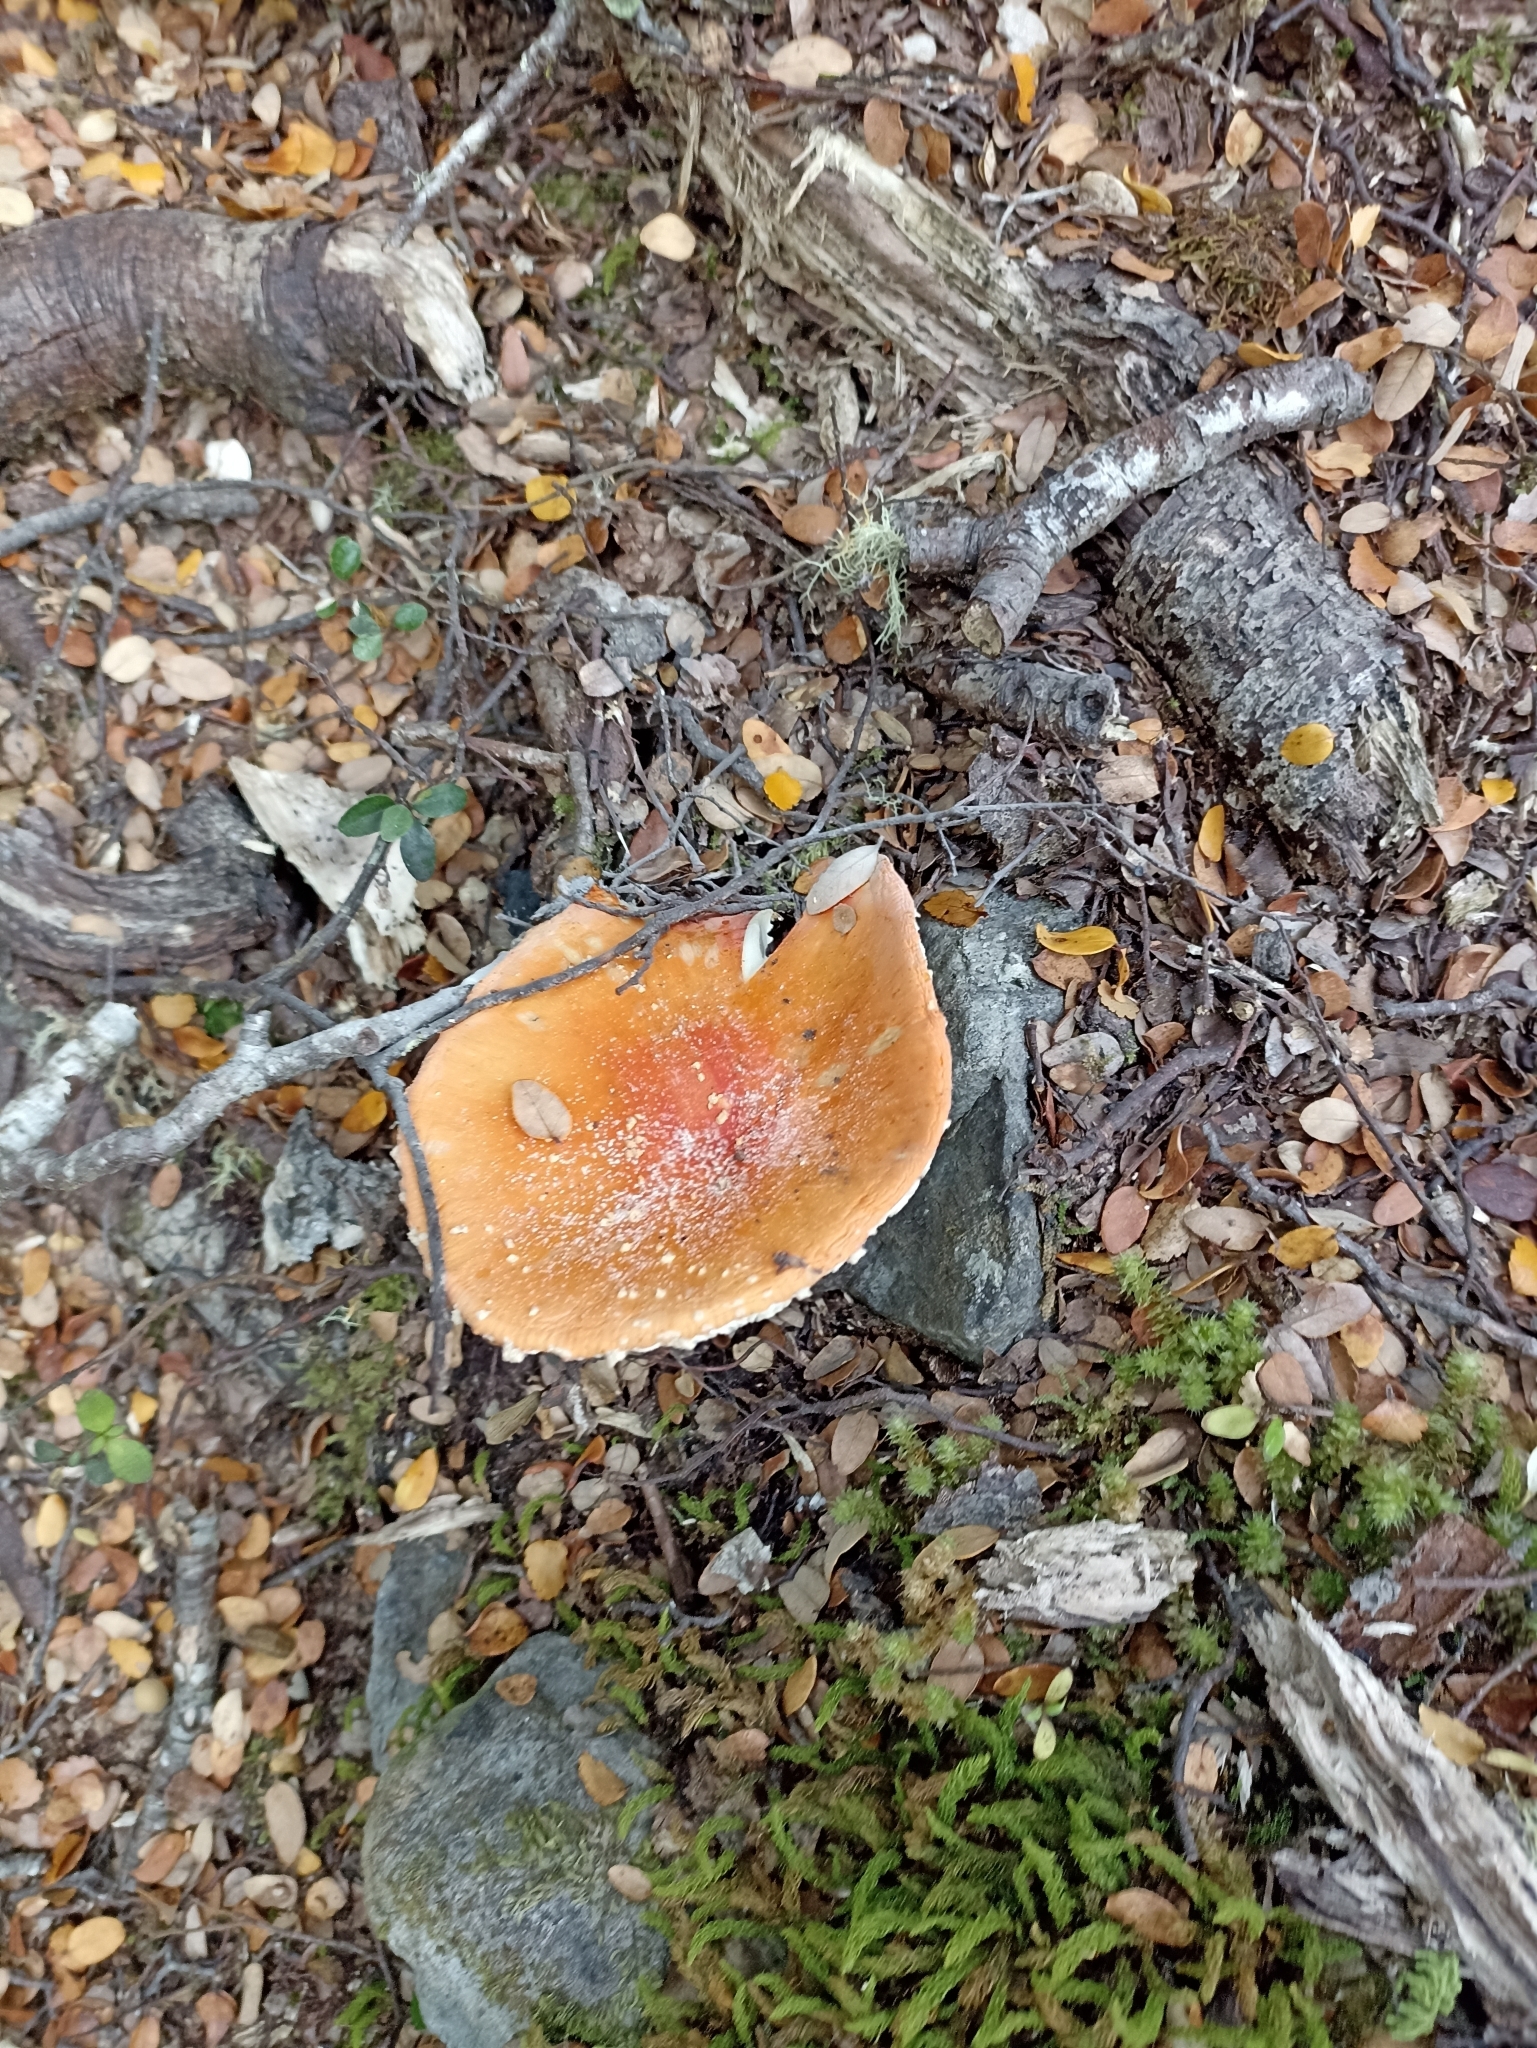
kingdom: Fungi
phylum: Basidiomycota
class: Agaricomycetes
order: Agaricales
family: Amanitaceae
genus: Amanita
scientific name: Amanita muscaria
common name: Fly agaric
